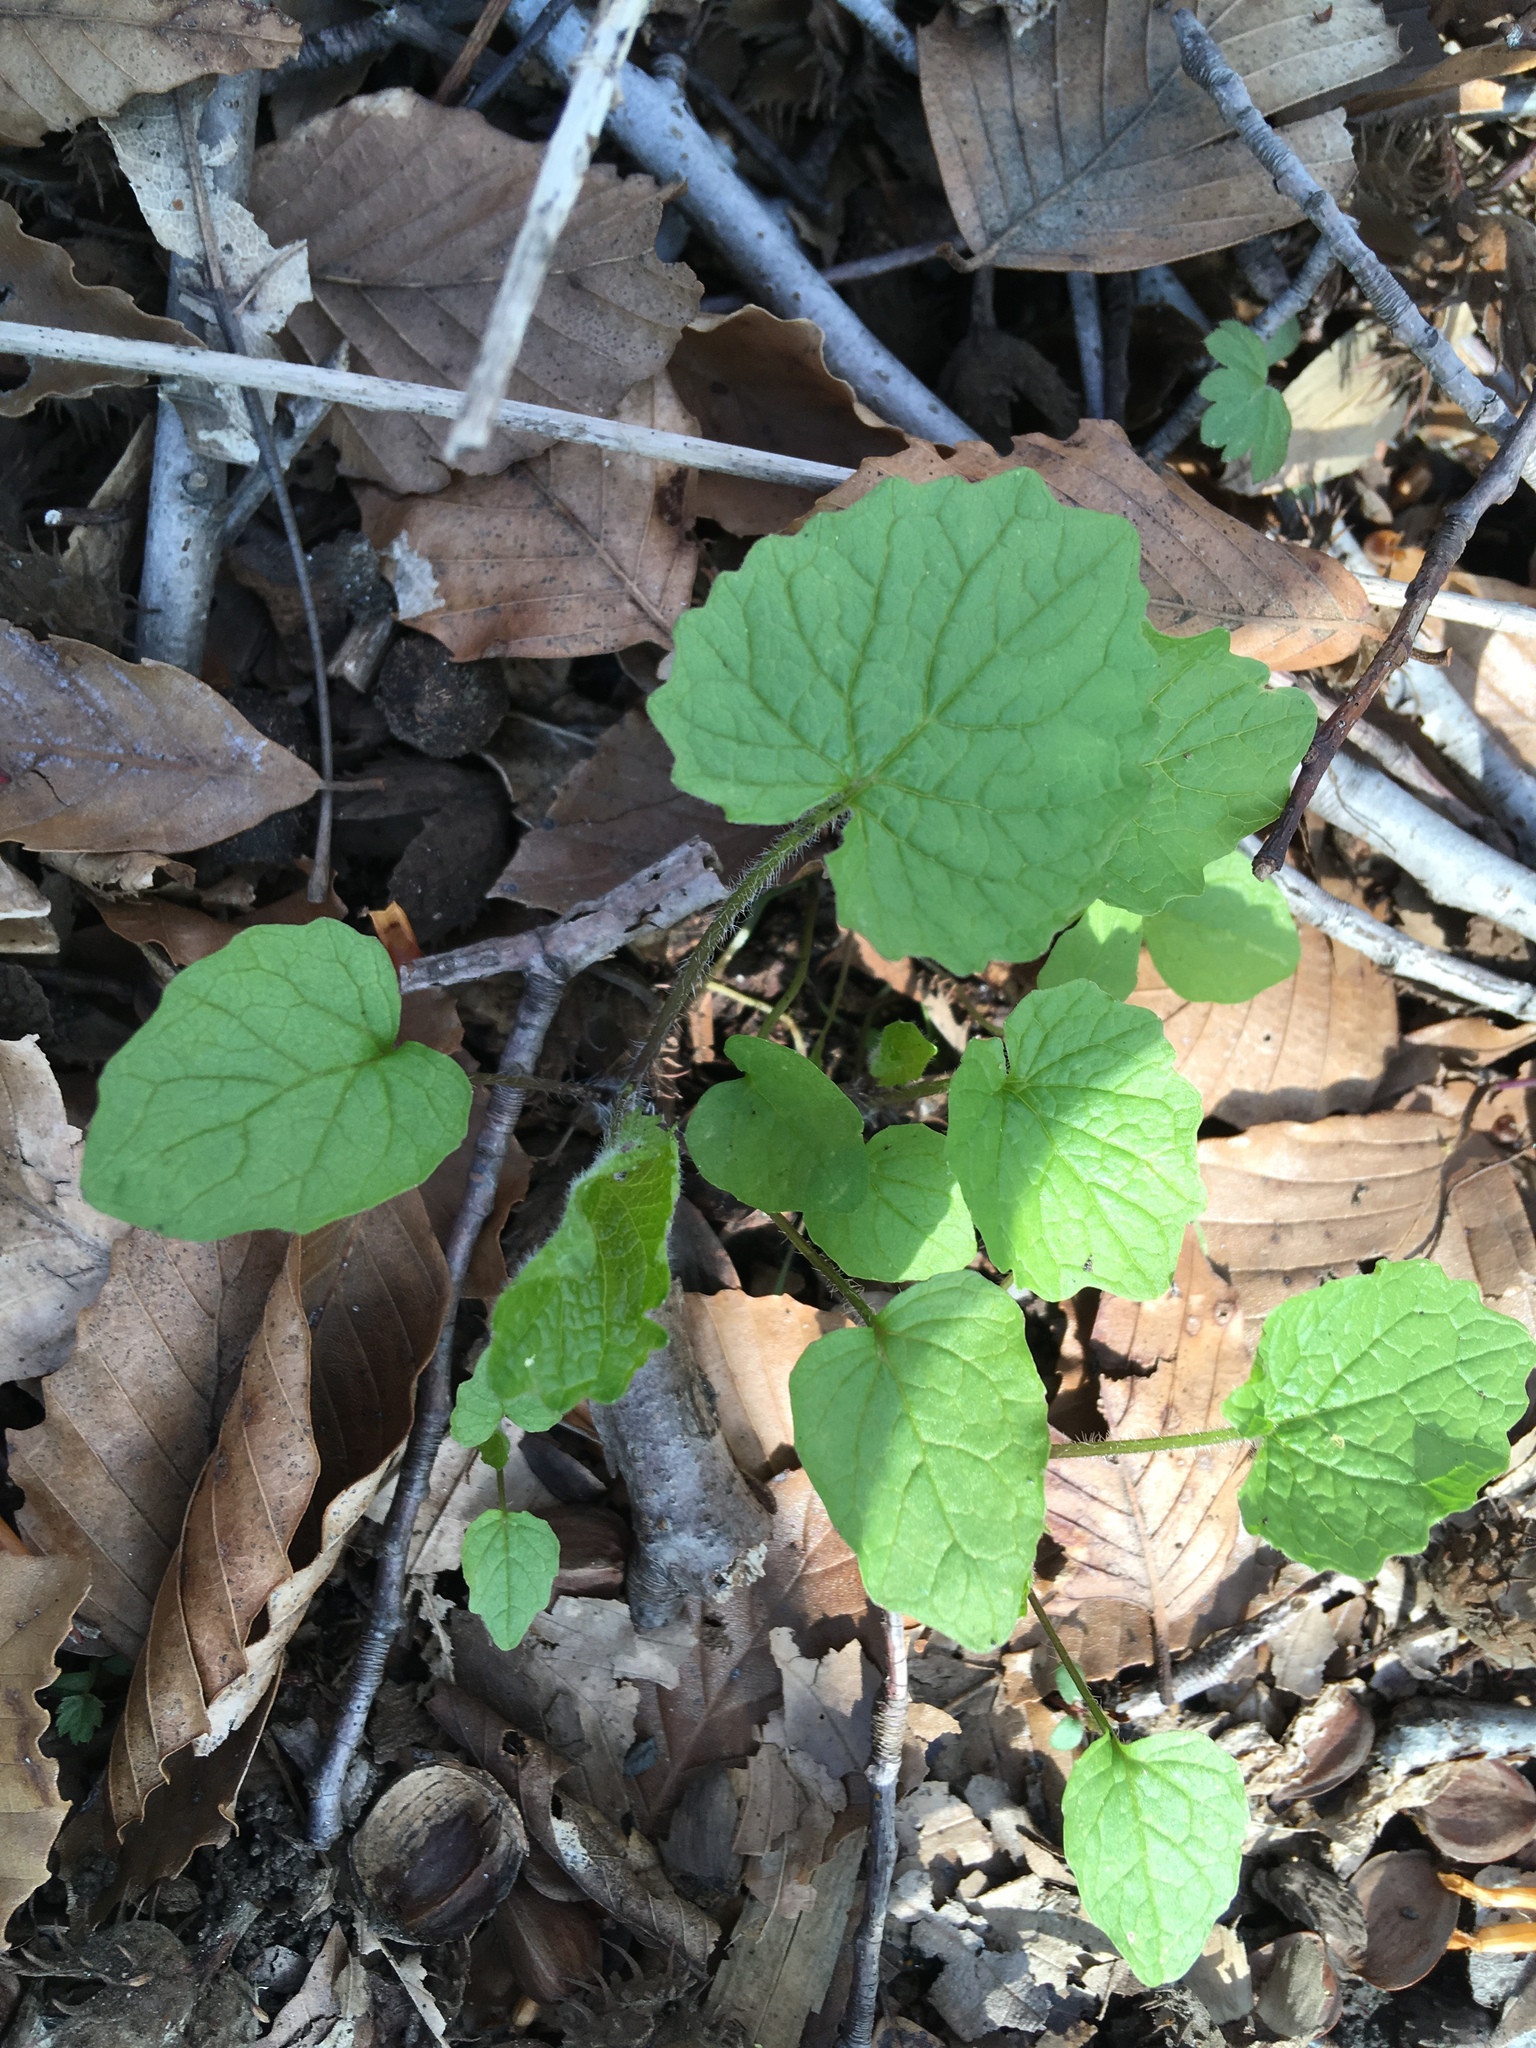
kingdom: Plantae
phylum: Tracheophyta
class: Magnoliopsida
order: Brassicales
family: Brassicaceae
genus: Alliaria
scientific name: Alliaria petiolata
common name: Garlic mustard
